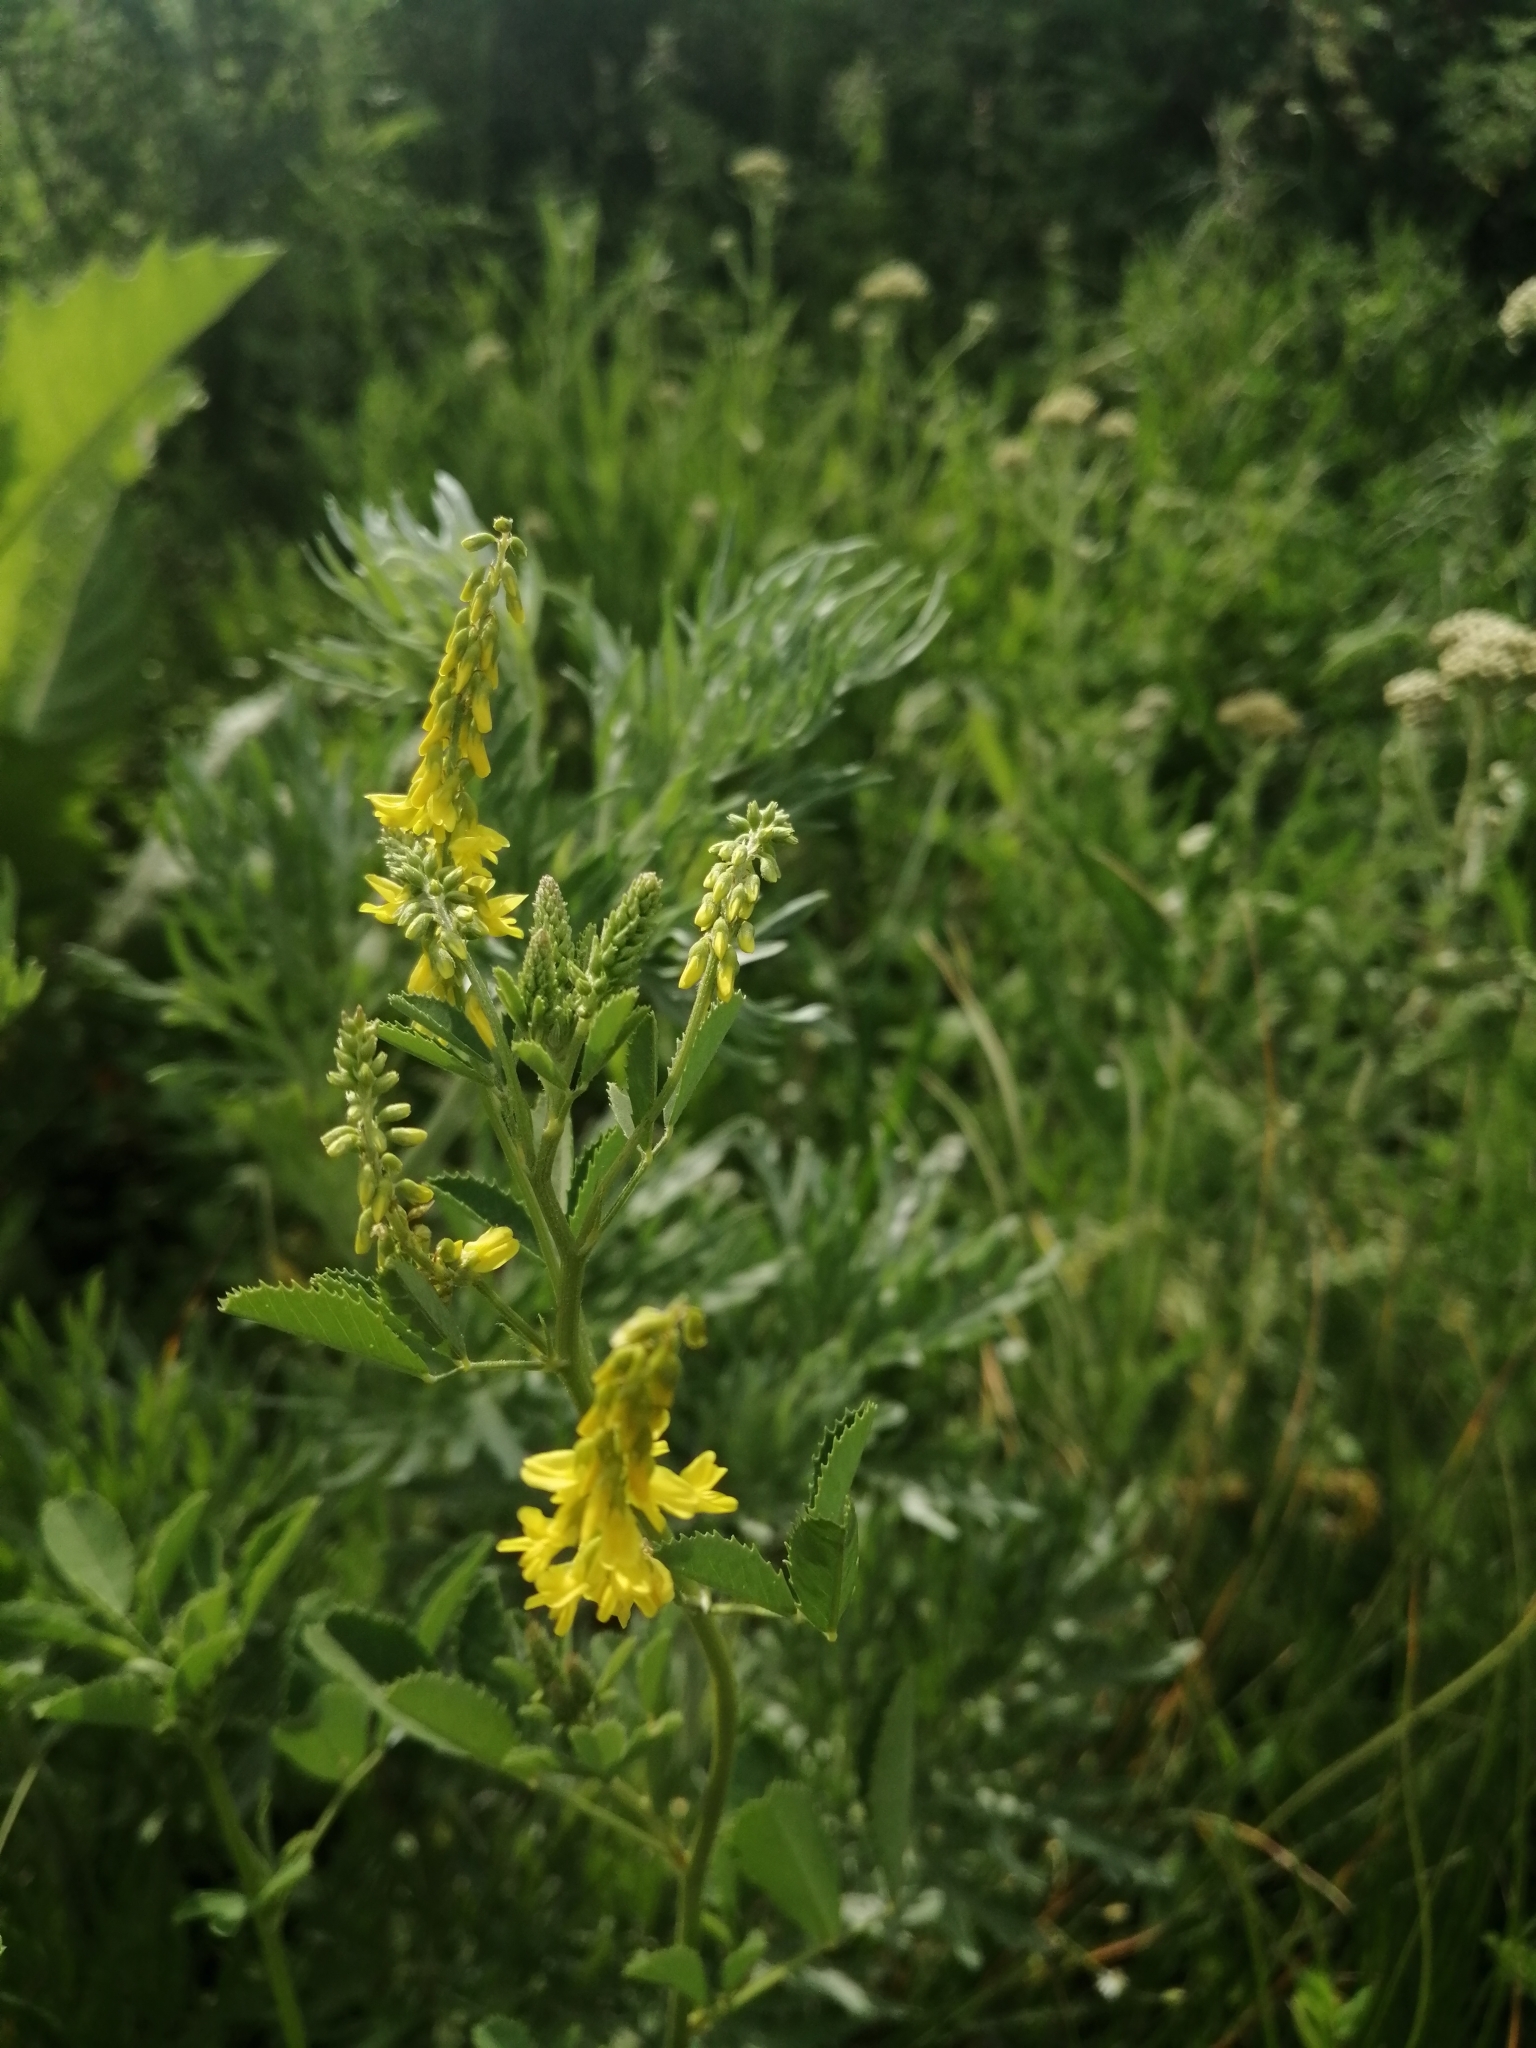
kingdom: Plantae
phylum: Tracheophyta
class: Magnoliopsida
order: Fabales
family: Fabaceae
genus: Melilotus
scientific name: Melilotus officinalis
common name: Sweetclover
